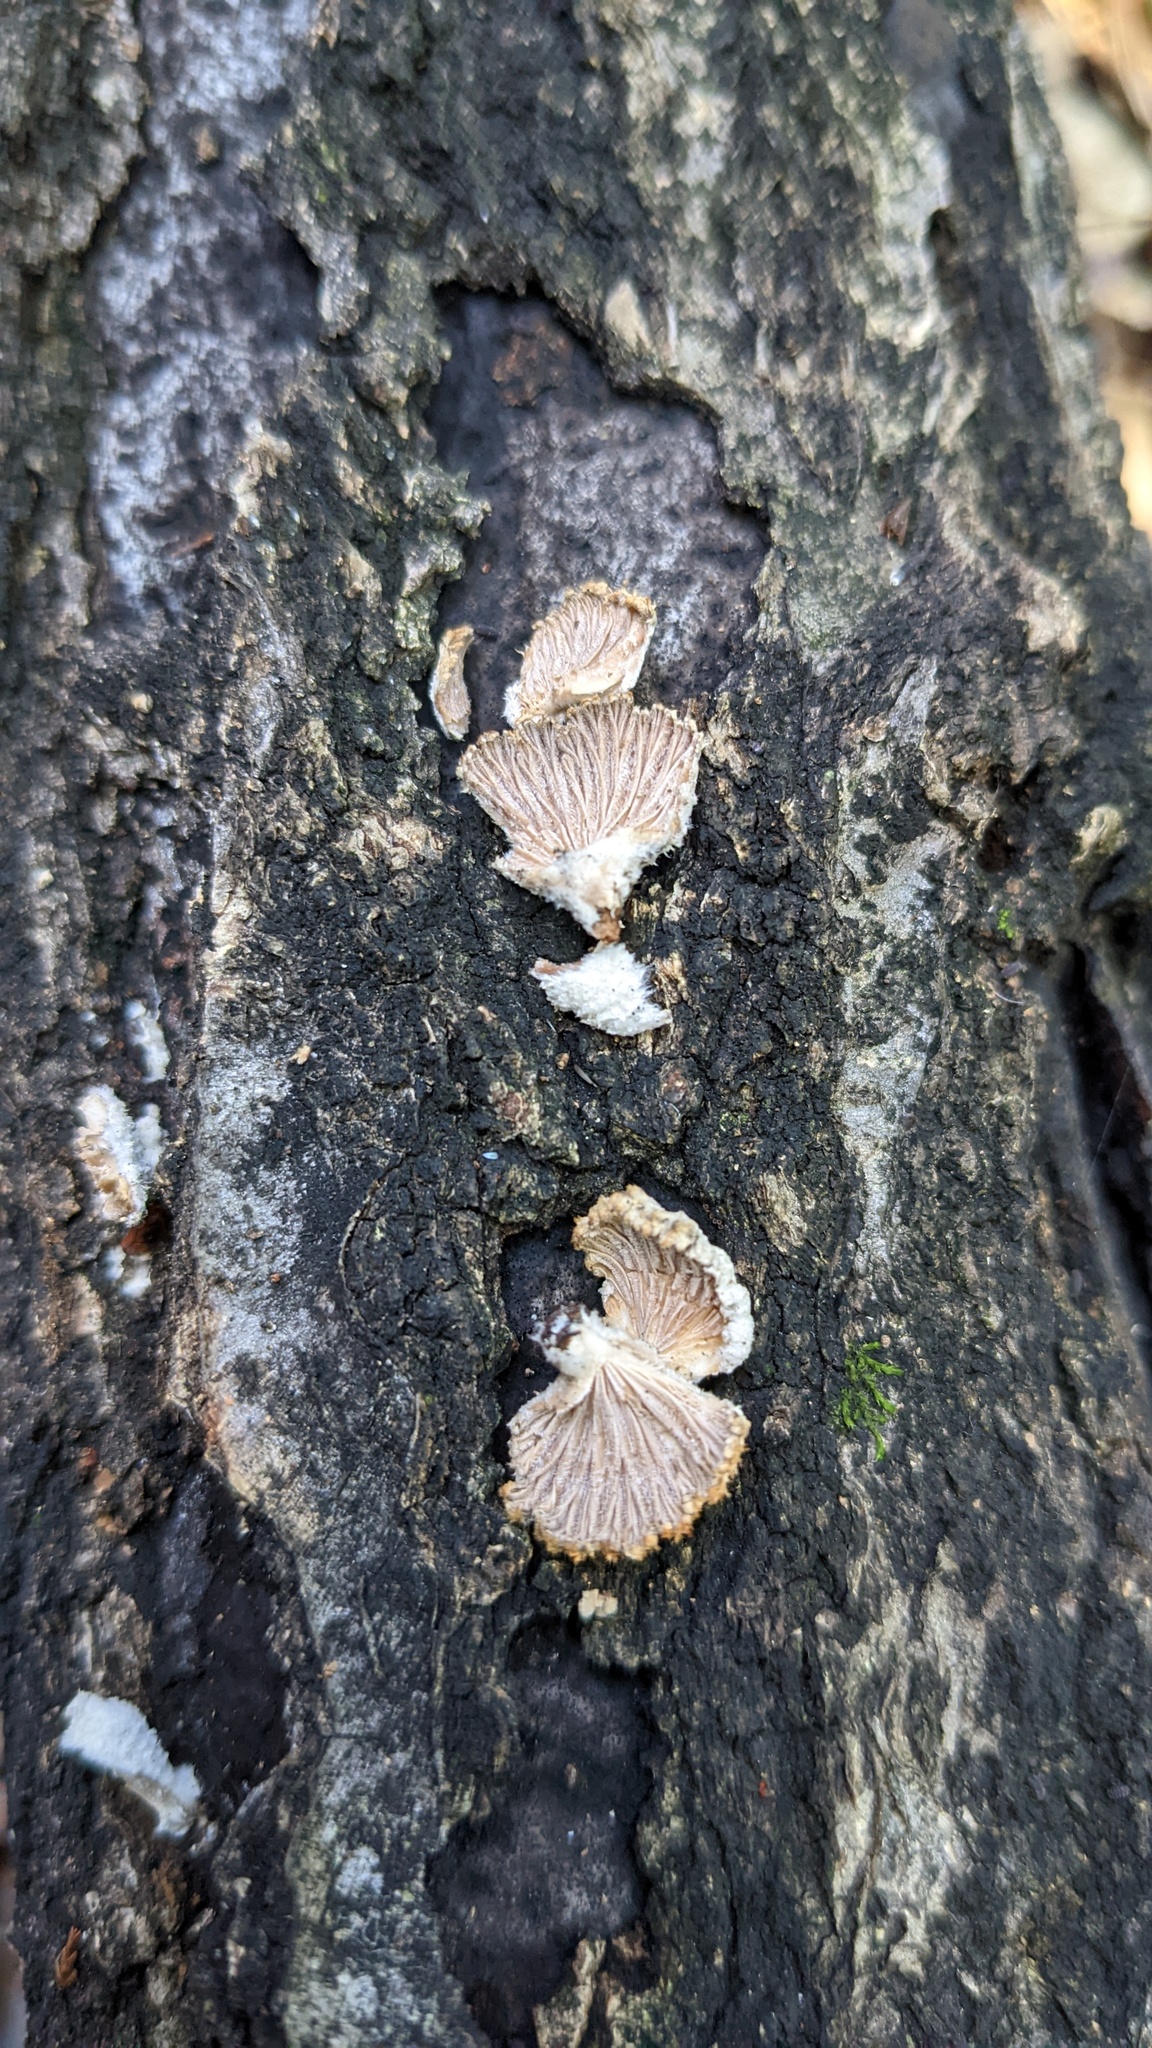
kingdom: Fungi
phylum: Basidiomycota
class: Agaricomycetes
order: Agaricales
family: Schizophyllaceae
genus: Schizophyllum
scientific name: Schizophyllum commune
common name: Common porecrust
